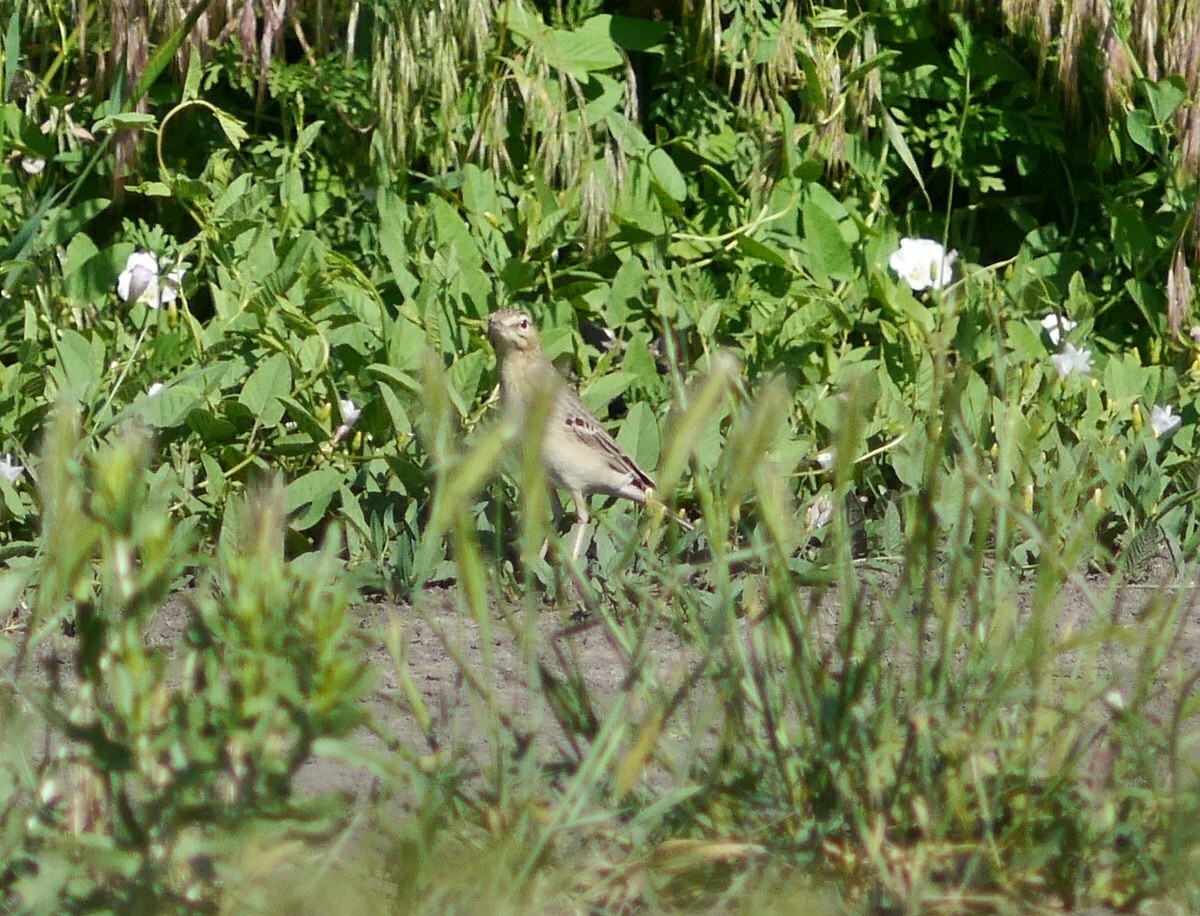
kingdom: Animalia
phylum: Chordata
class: Aves
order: Passeriformes
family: Motacillidae
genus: Anthus
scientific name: Anthus campestris
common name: Tawny pipit
